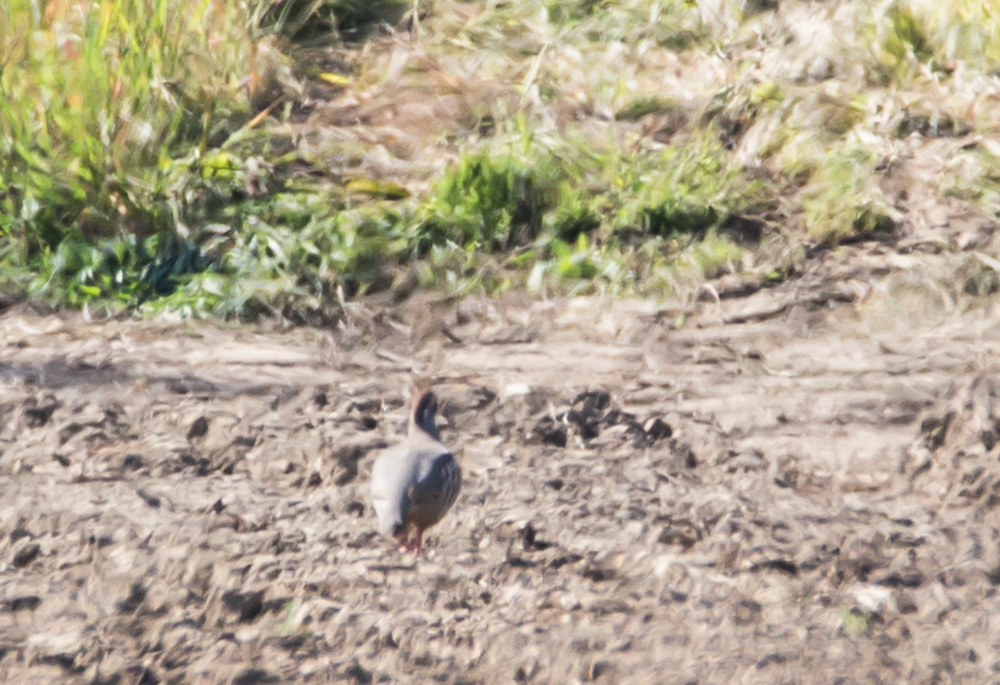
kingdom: Animalia
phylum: Chordata
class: Aves
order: Galliformes
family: Phasianidae
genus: Alectoris
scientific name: Alectoris rufa
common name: Red-legged partridge
